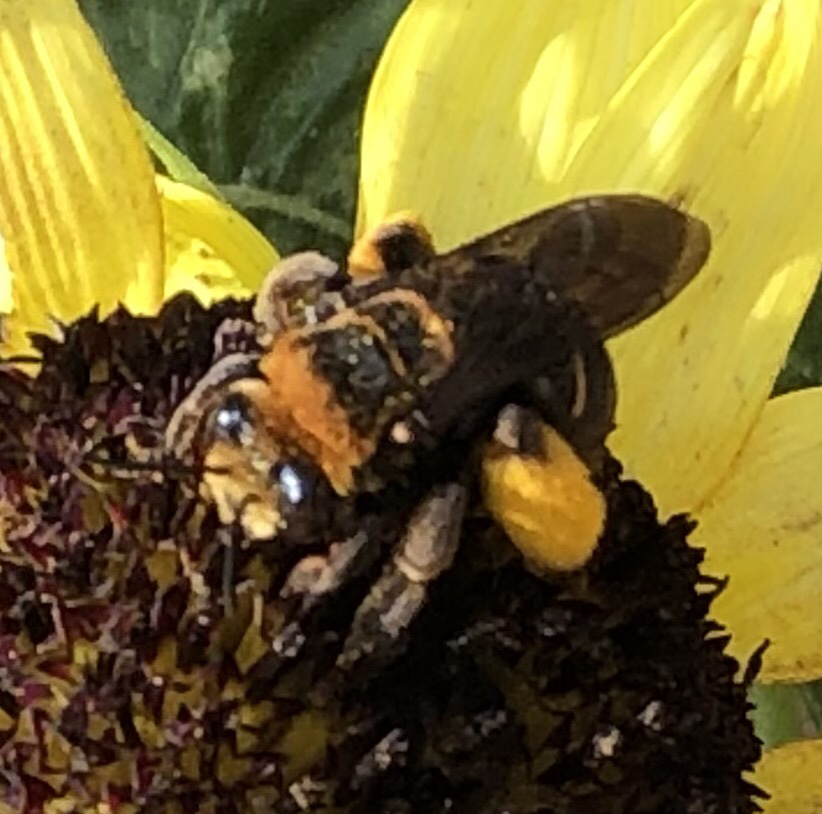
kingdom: Animalia
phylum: Arthropoda
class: Insecta
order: Hymenoptera
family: Apidae
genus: Svastra
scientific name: Svastra obliqua
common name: Oblique longhorn
